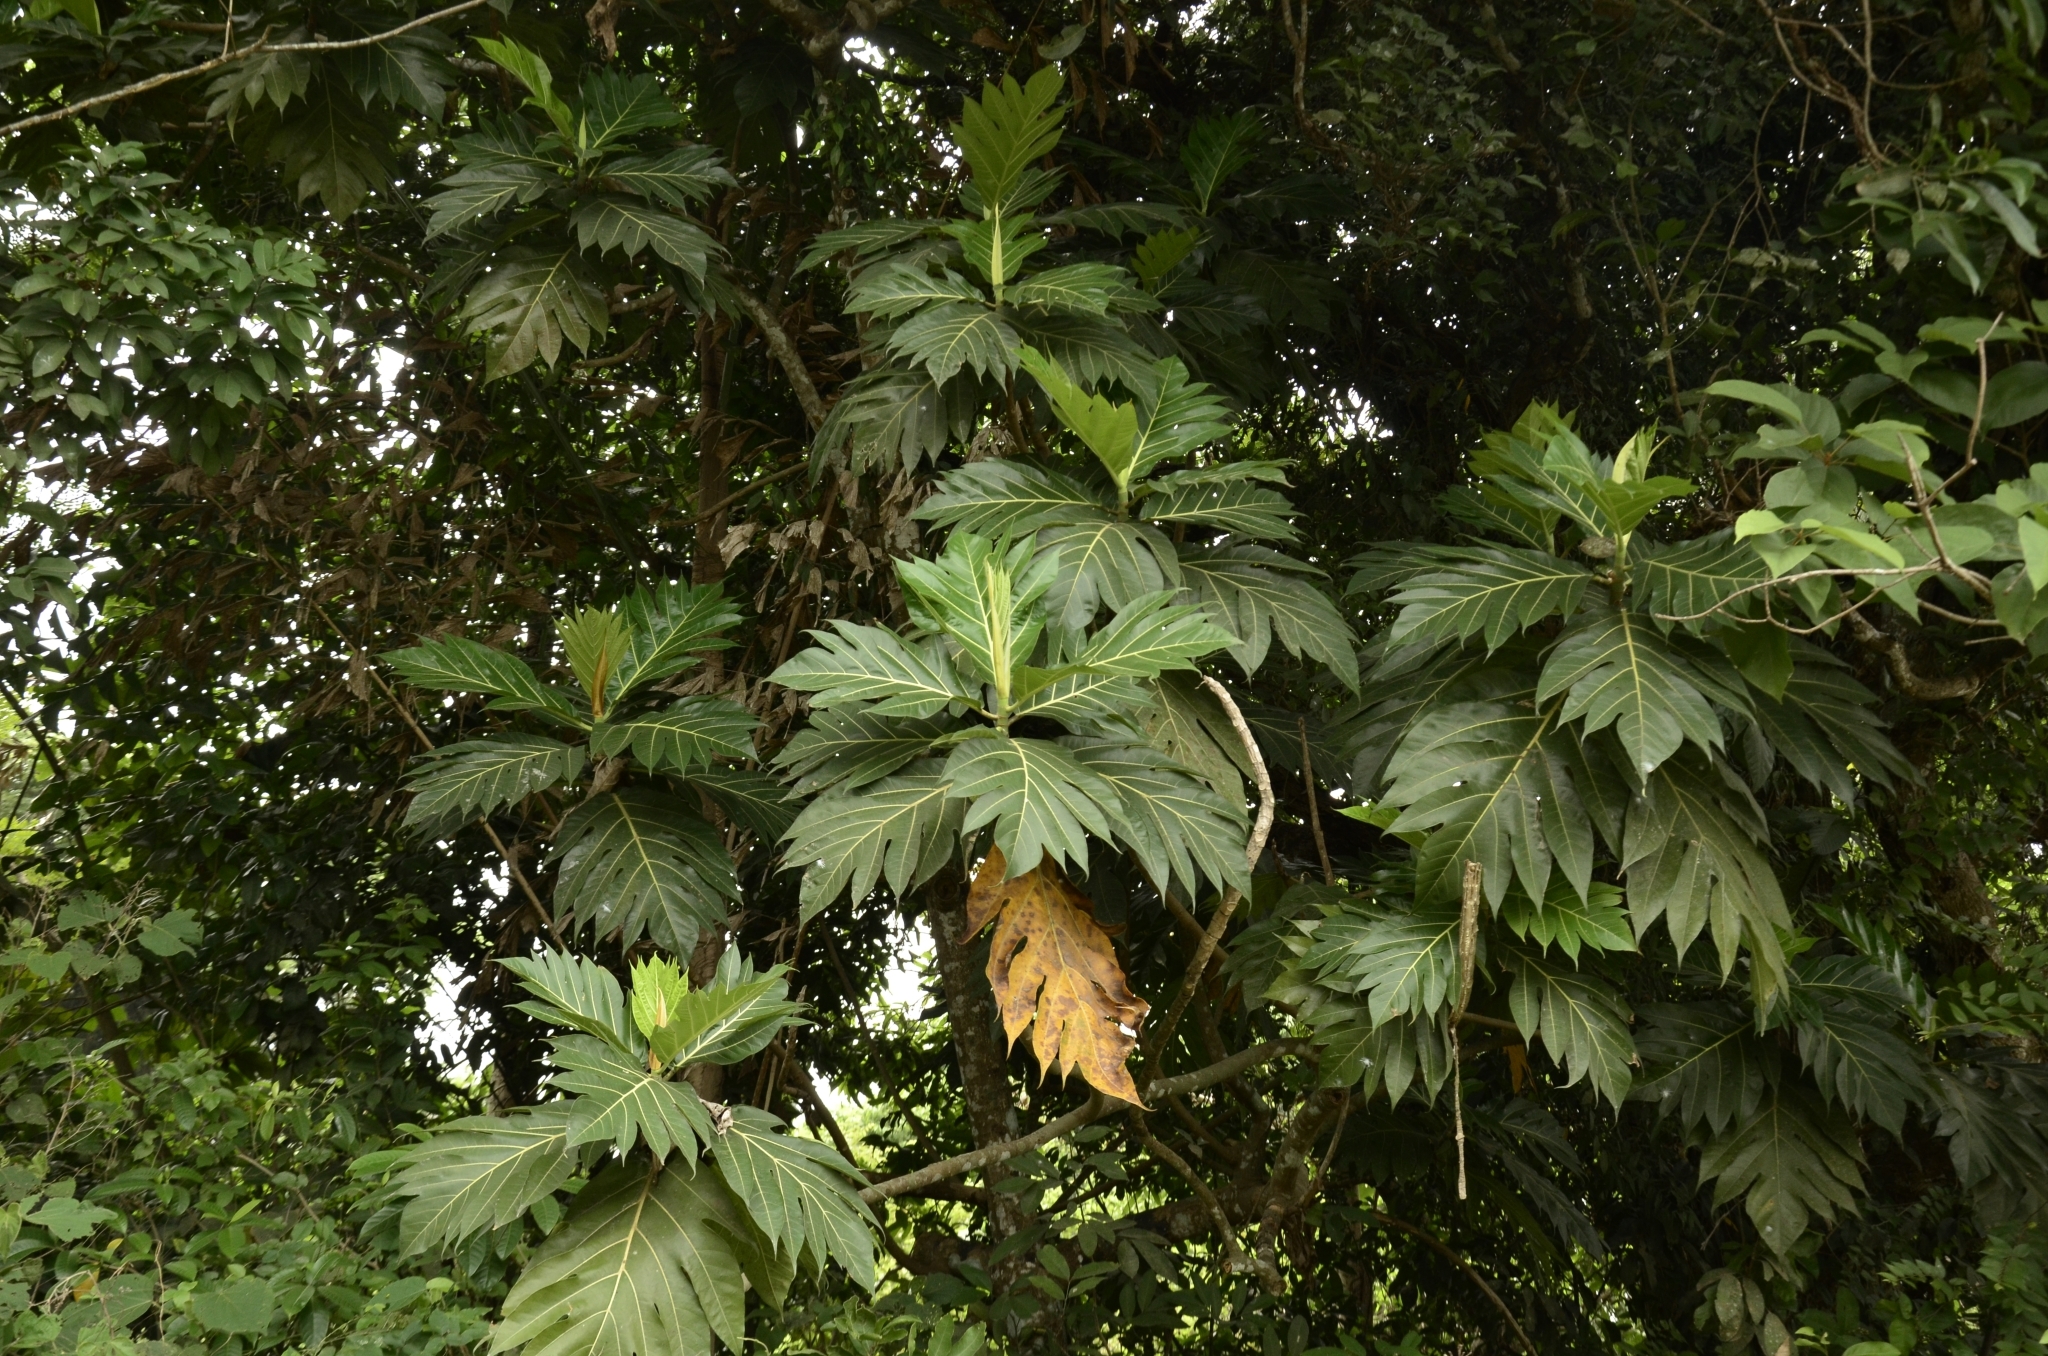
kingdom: Plantae
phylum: Tracheophyta
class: Magnoliopsida
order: Rosales
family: Moraceae
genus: Artocarpus
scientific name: Artocarpus altilis
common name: Breadfruit
